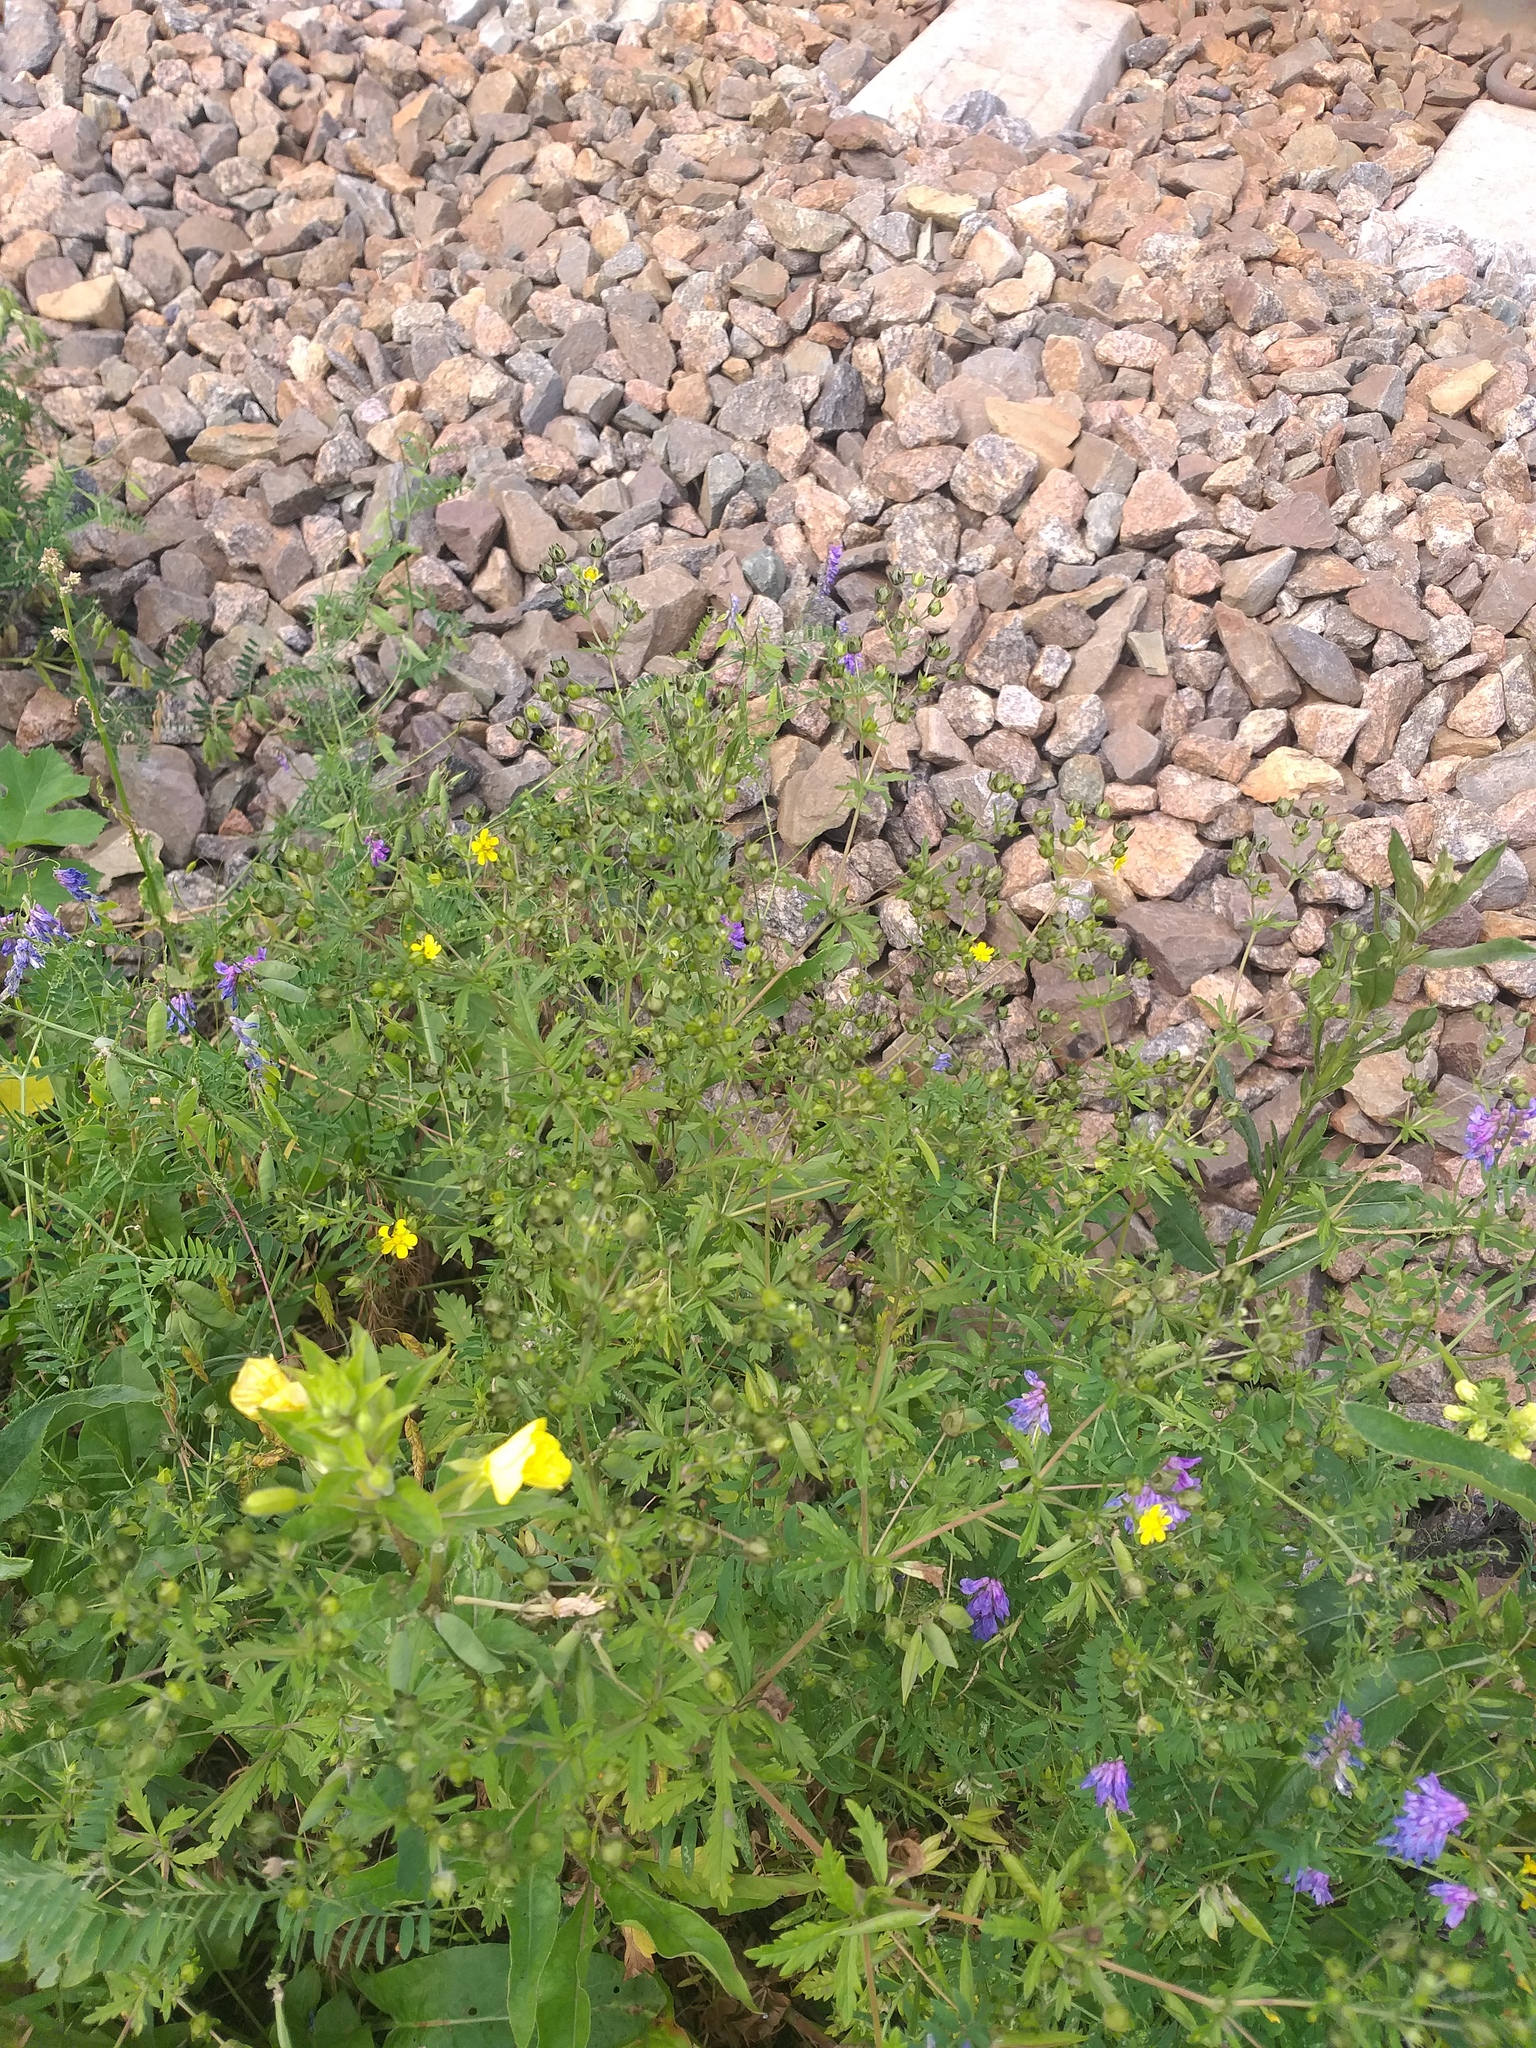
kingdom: Plantae
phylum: Tracheophyta
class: Magnoliopsida
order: Rosales
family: Rosaceae
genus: Potentilla
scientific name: Potentilla intermedia
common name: Downy cinquefoil
